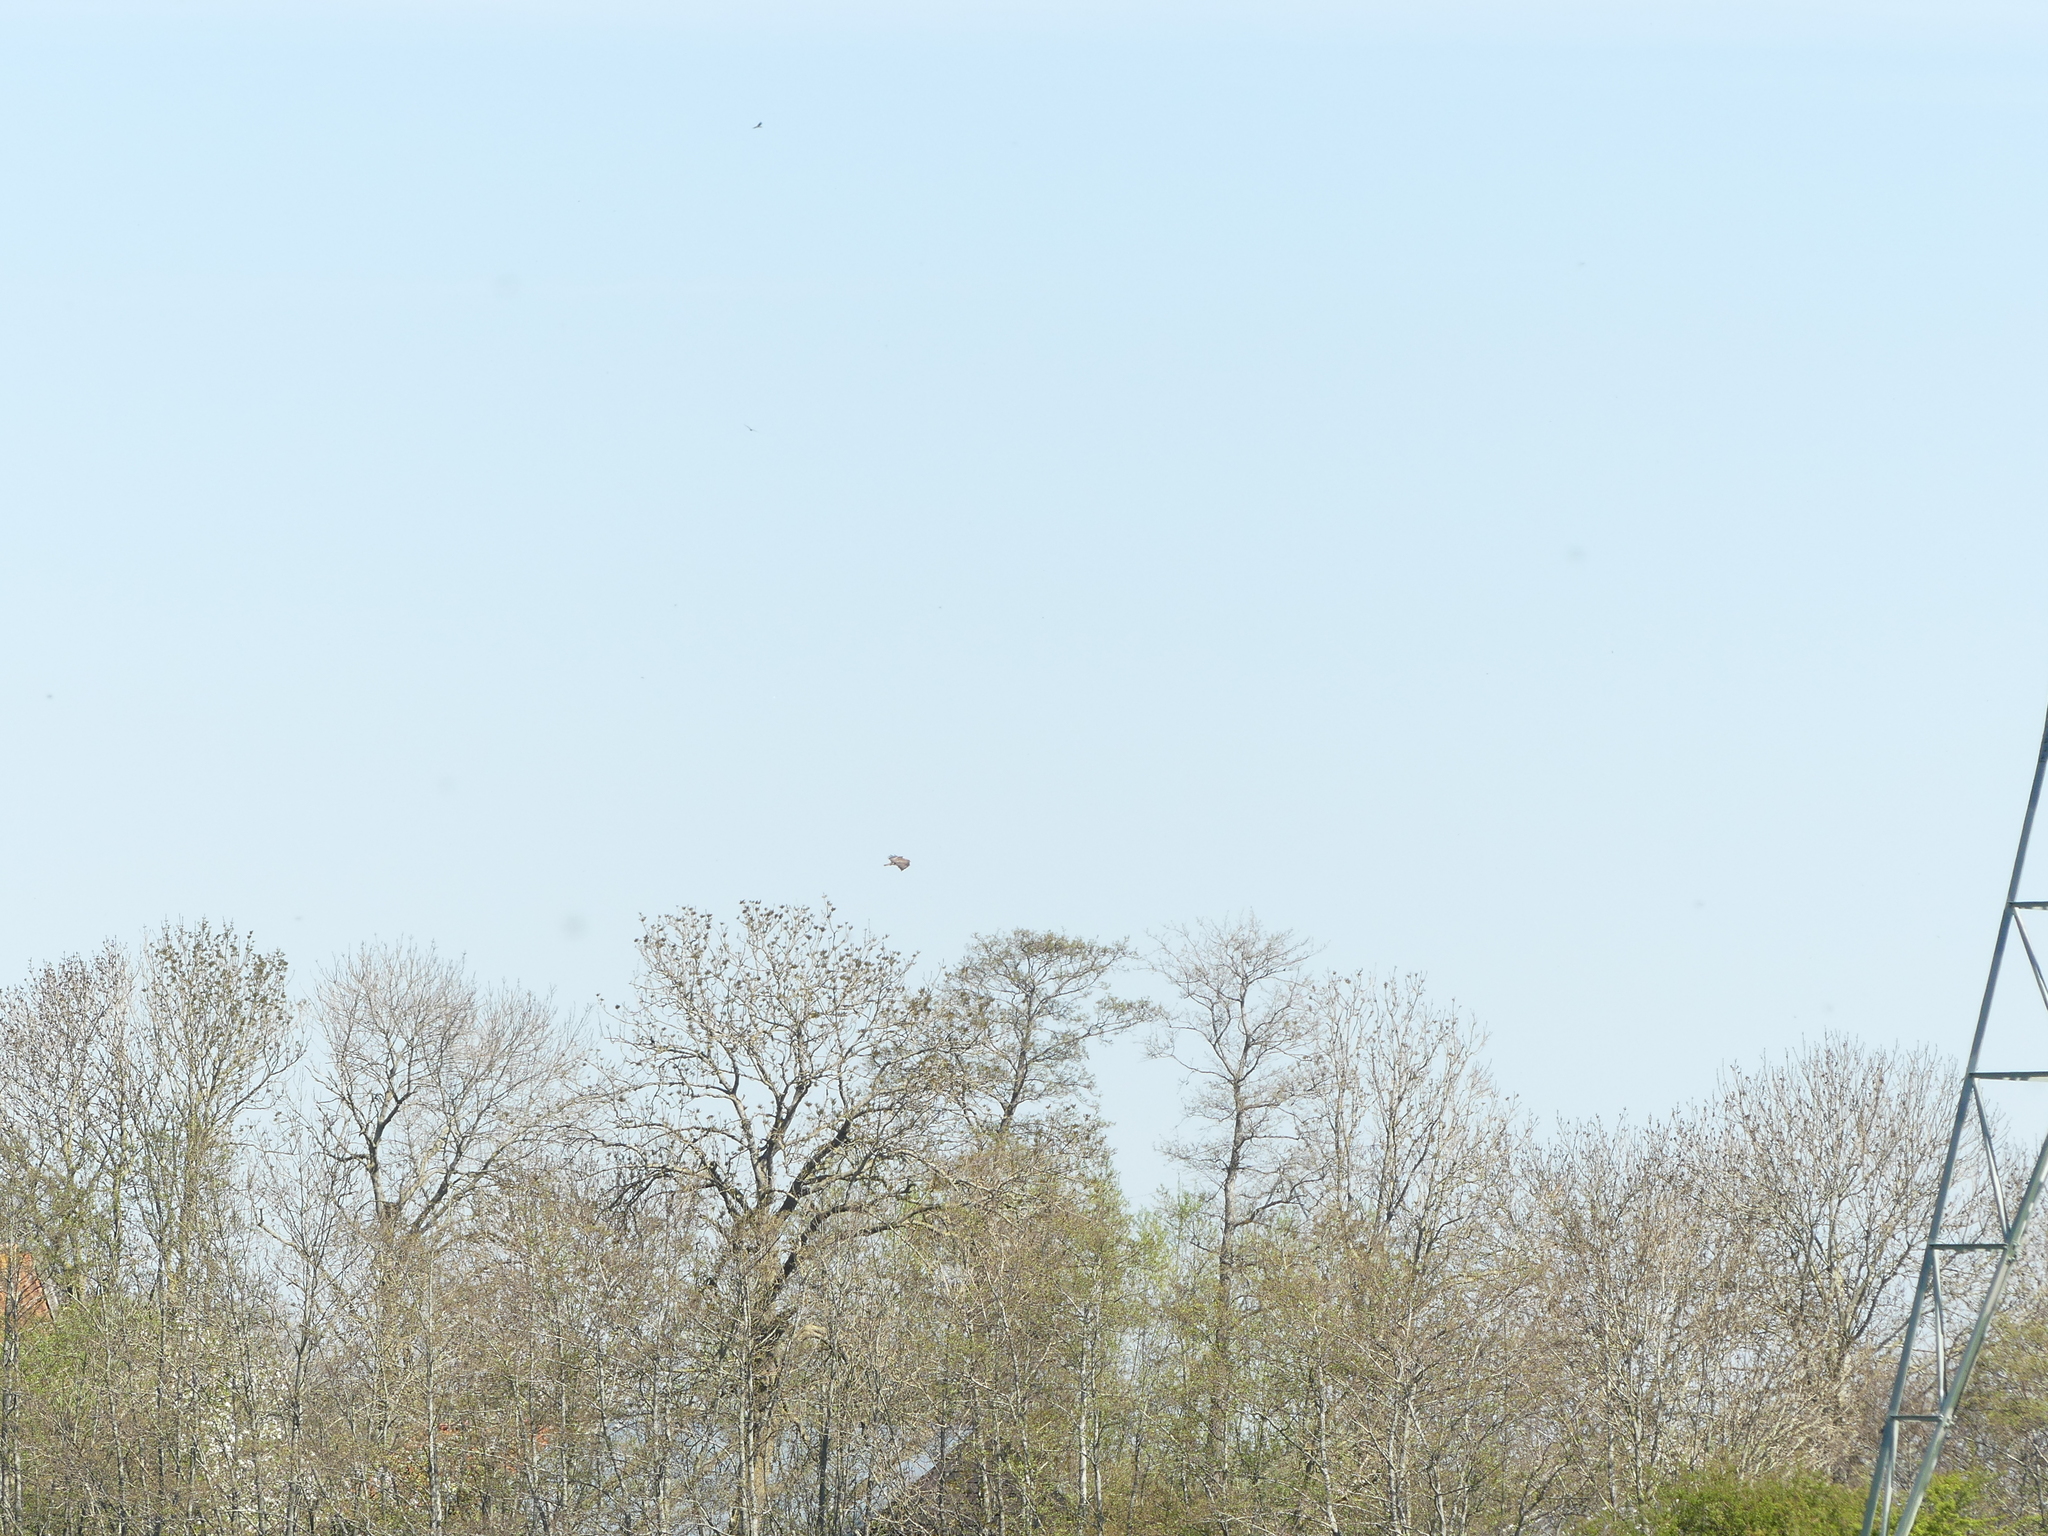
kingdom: Animalia
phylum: Chordata
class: Aves
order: Accipitriformes
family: Accipitridae
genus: Buteo
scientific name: Buteo buteo
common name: Common buzzard
